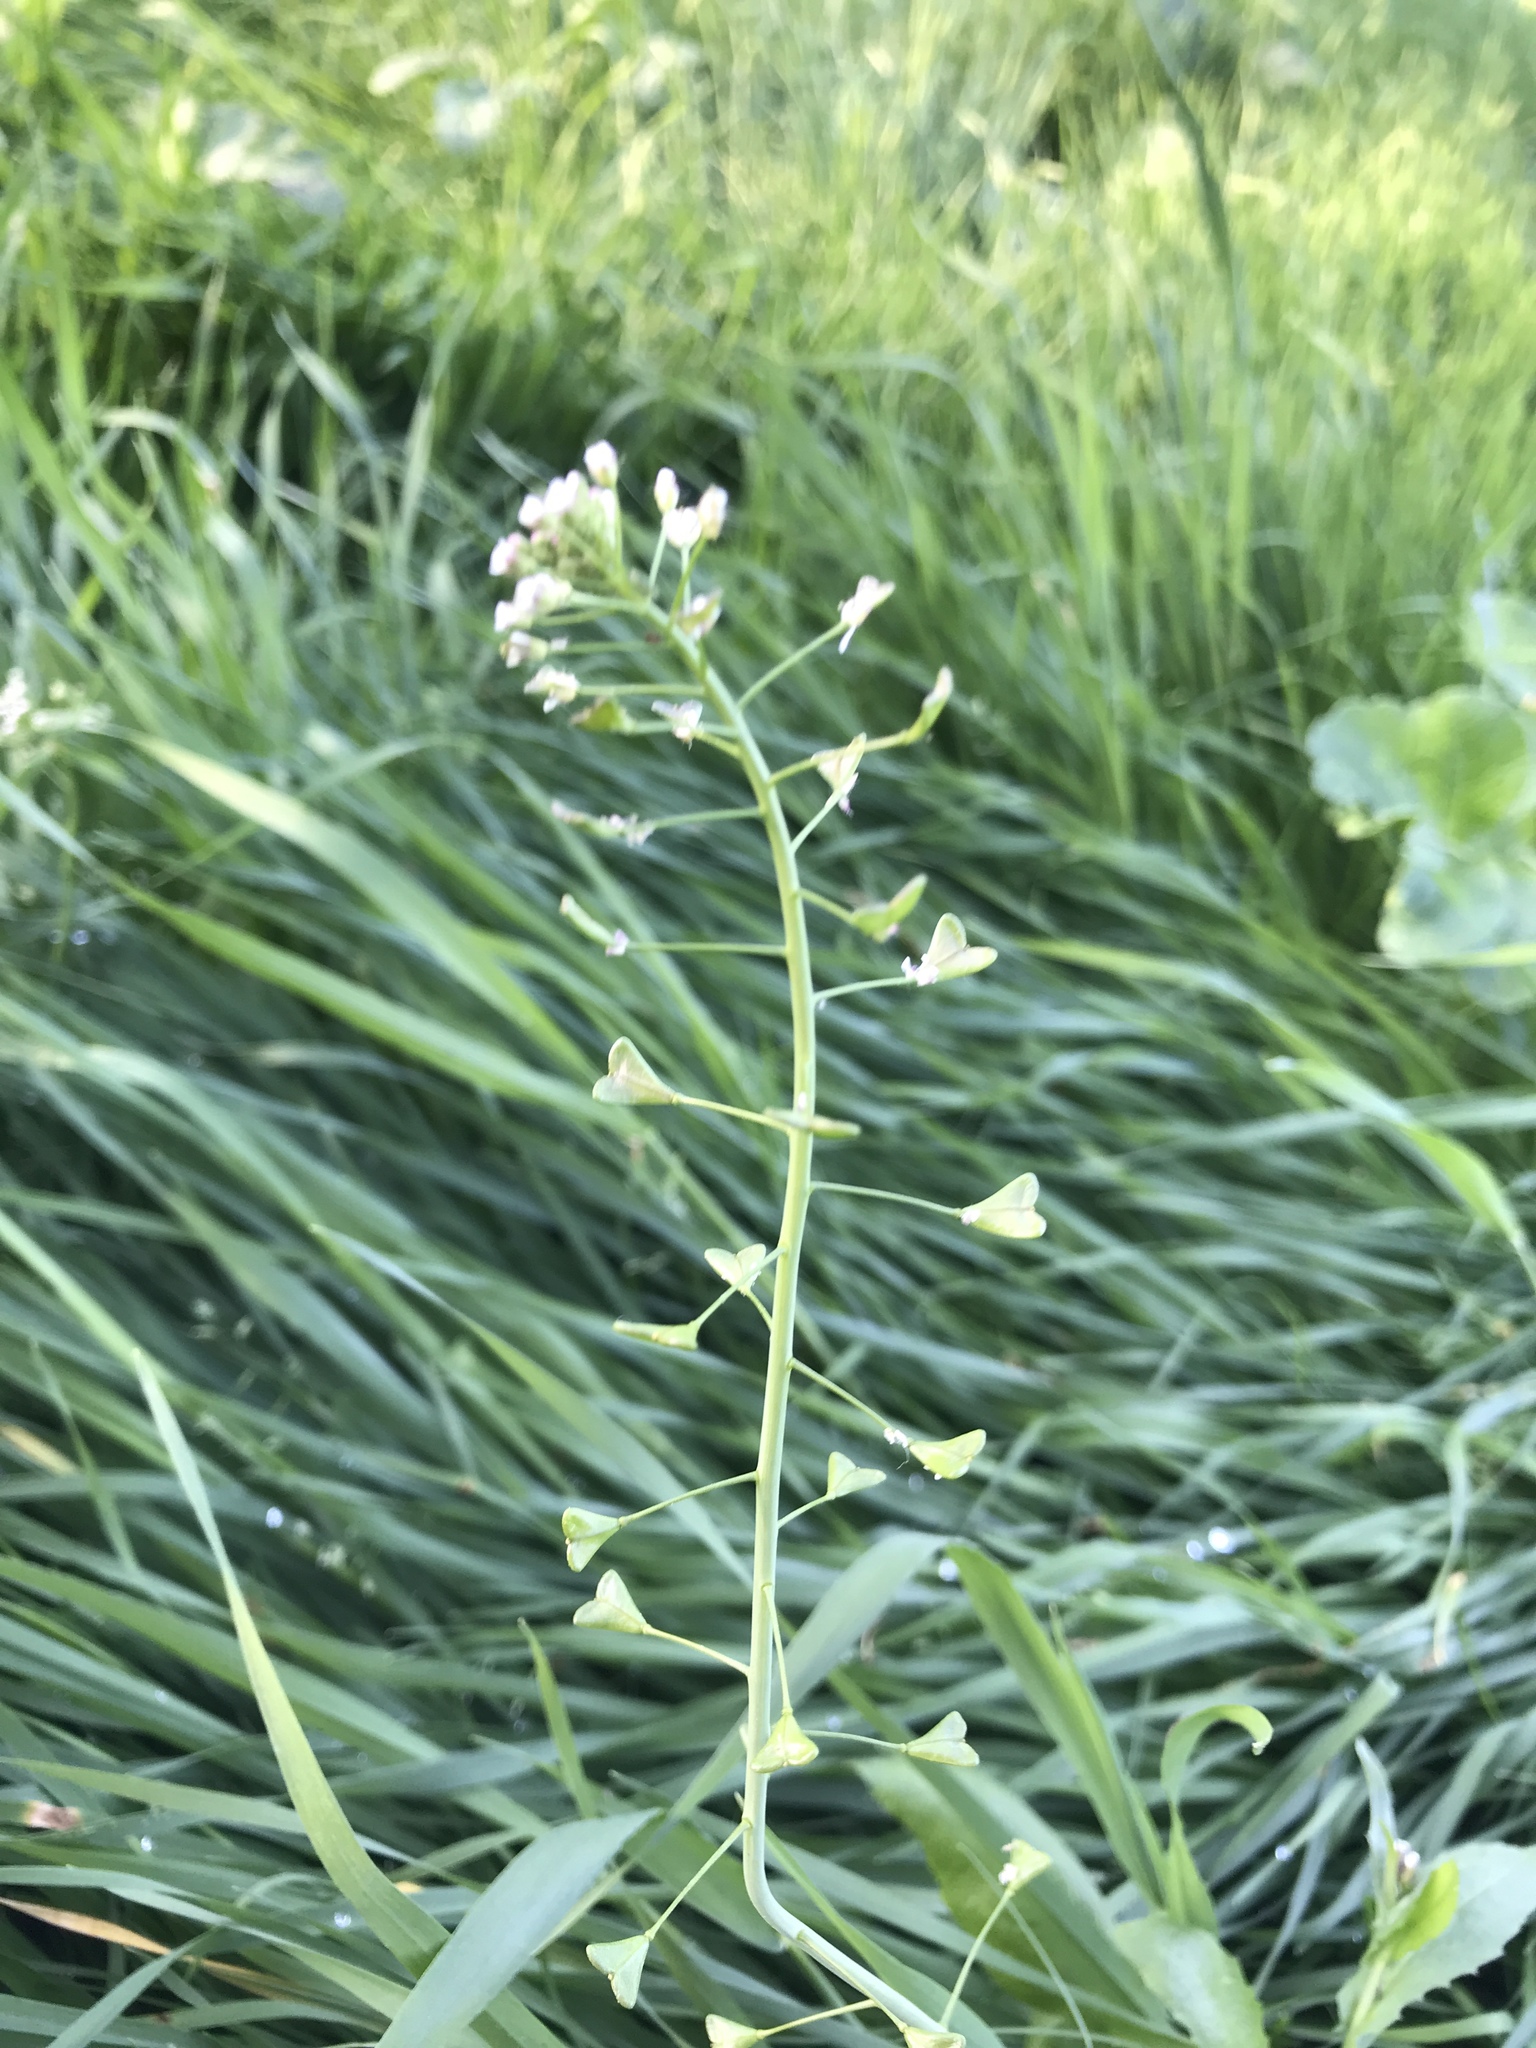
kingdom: Plantae
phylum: Tracheophyta
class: Magnoliopsida
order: Brassicales
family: Brassicaceae
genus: Capsella
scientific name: Capsella bursa-pastoris
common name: Shepherd's purse
